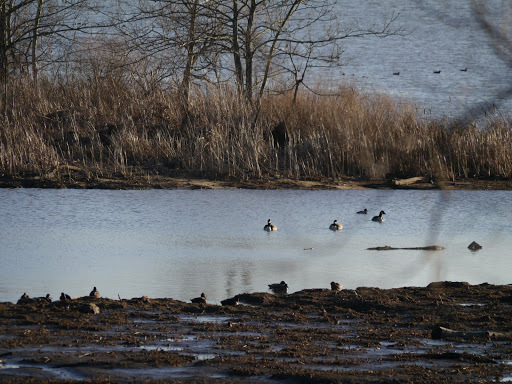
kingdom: Animalia
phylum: Chordata
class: Aves
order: Anseriformes
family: Anatidae
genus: Branta
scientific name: Branta canadensis
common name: Canada goose
